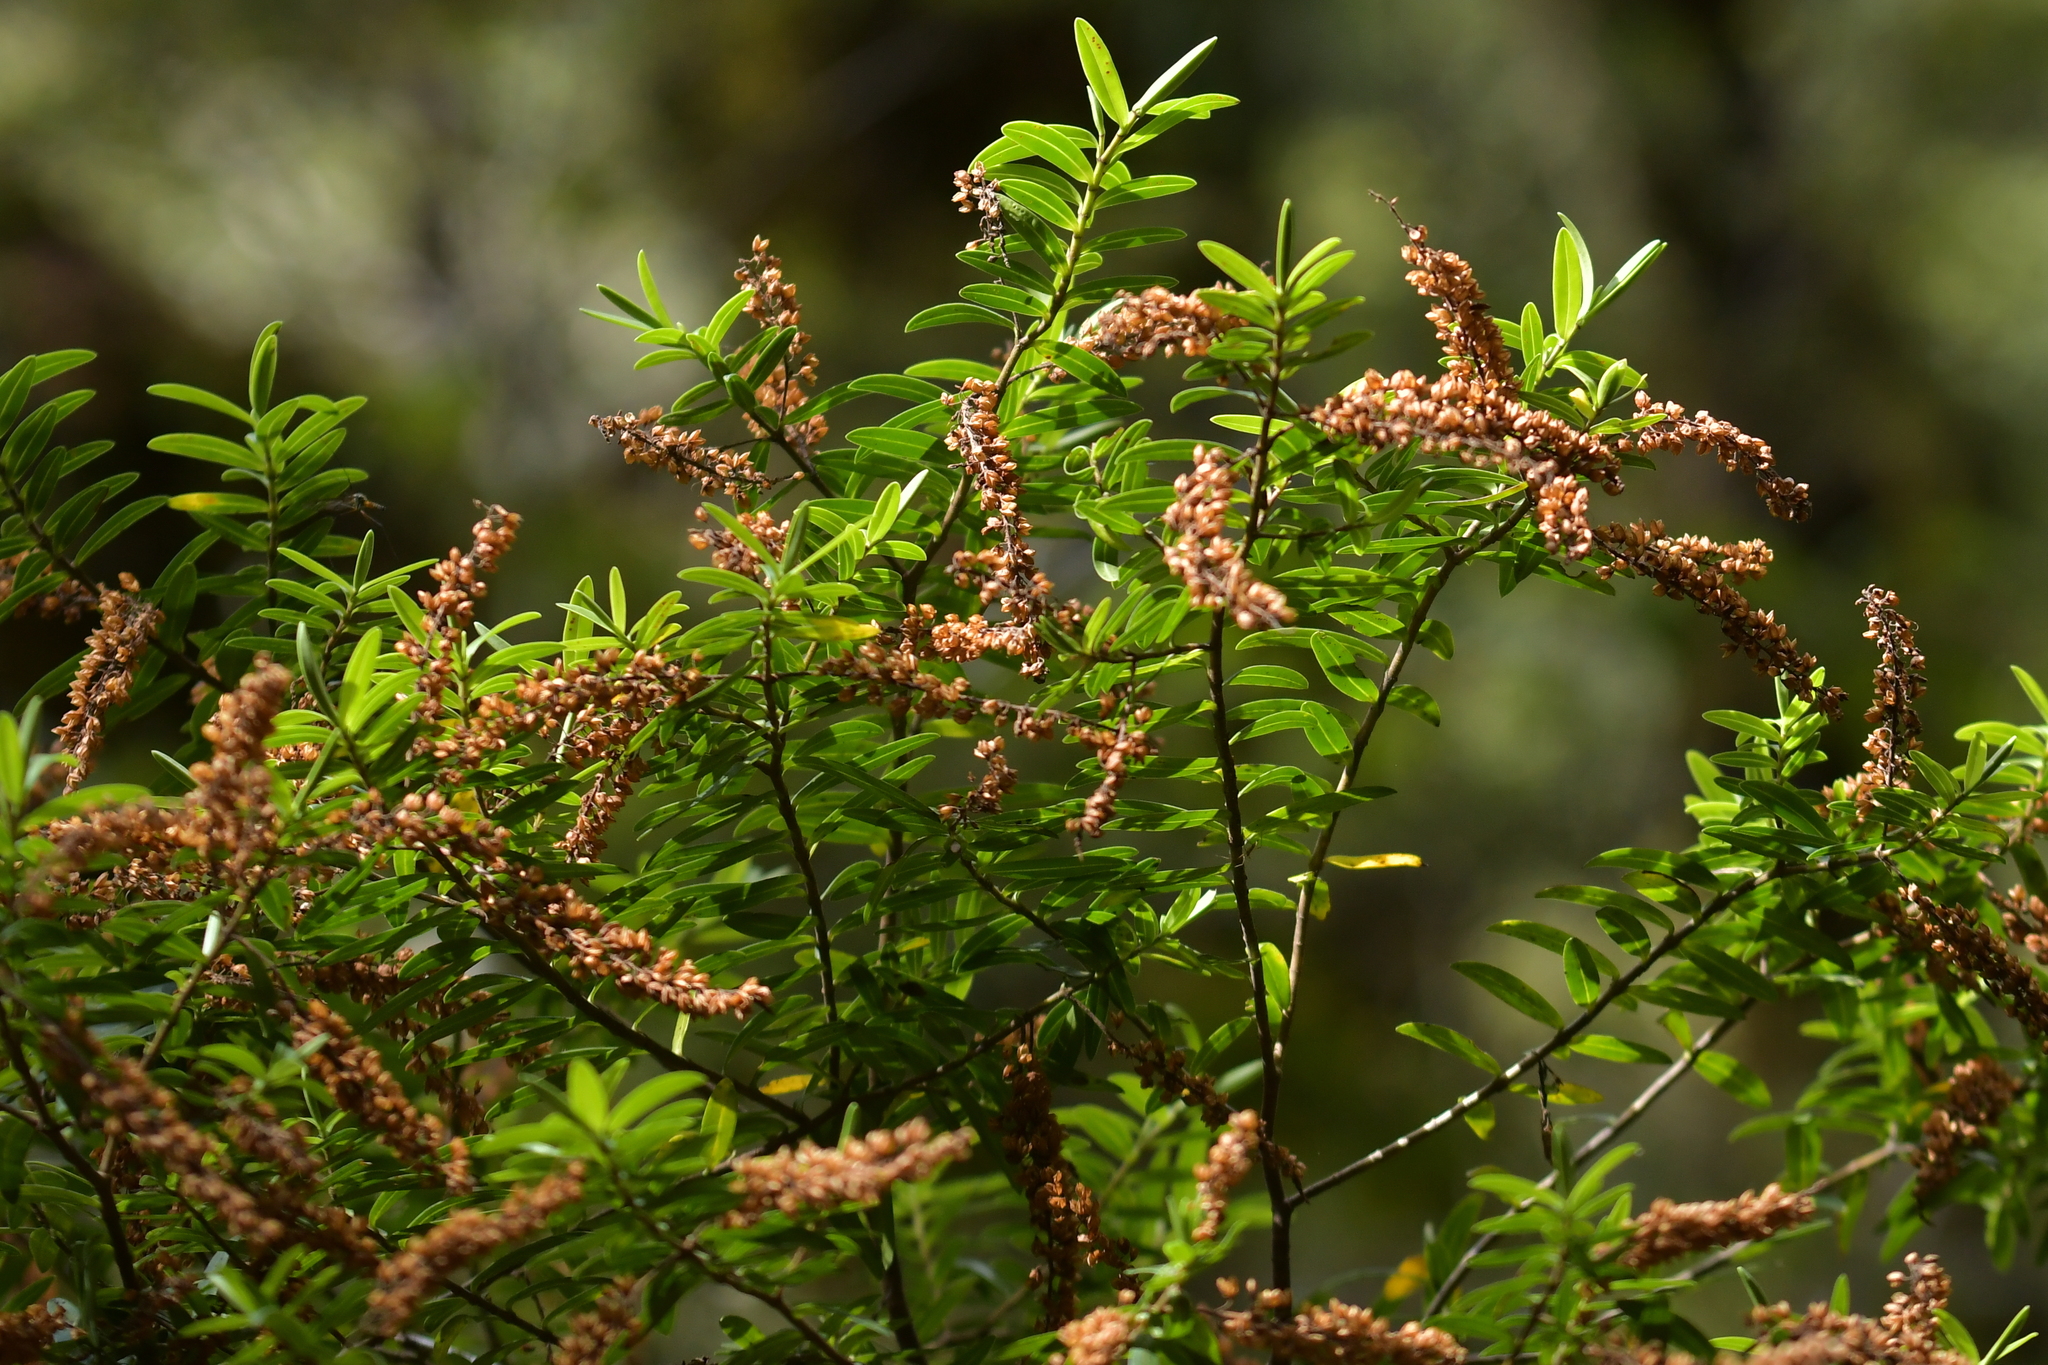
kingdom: Plantae
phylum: Tracheophyta
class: Magnoliopsida
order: Lamiales
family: Plantaginaceae
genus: Veronica
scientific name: Veronica leiophylla
